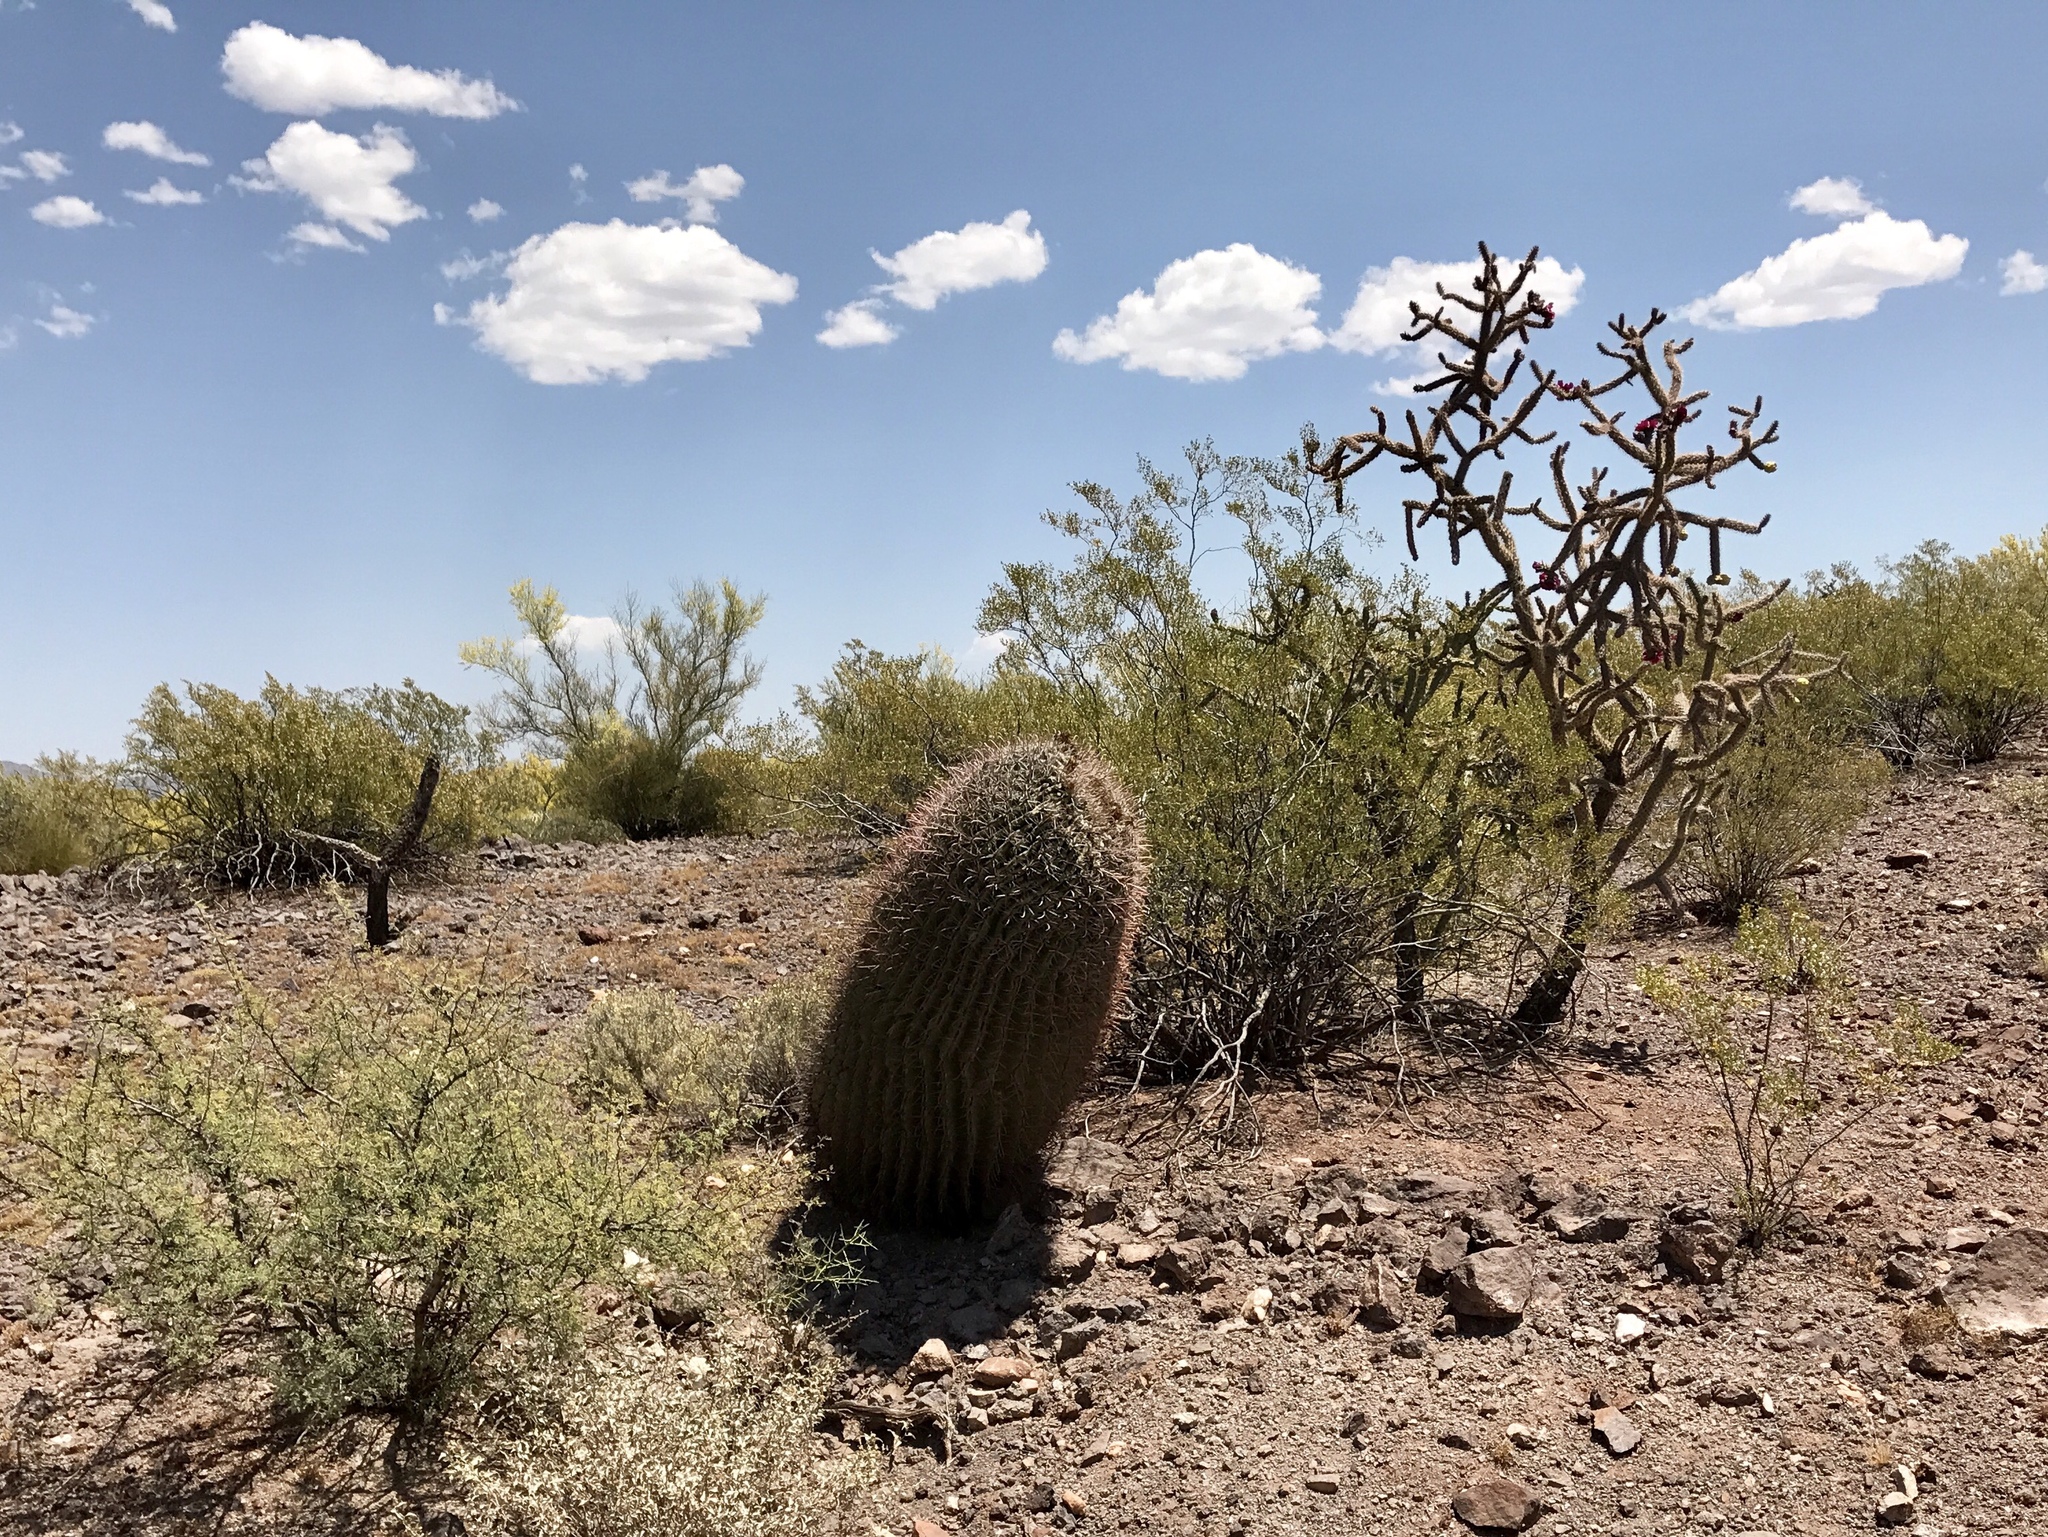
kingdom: Plantae
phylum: Tracheophyta
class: Magnoliopsida
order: Caryophyllales
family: Cactaceae
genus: Ferocactus
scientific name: Ferocactus wislizeni
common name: Candy barrel cactus
